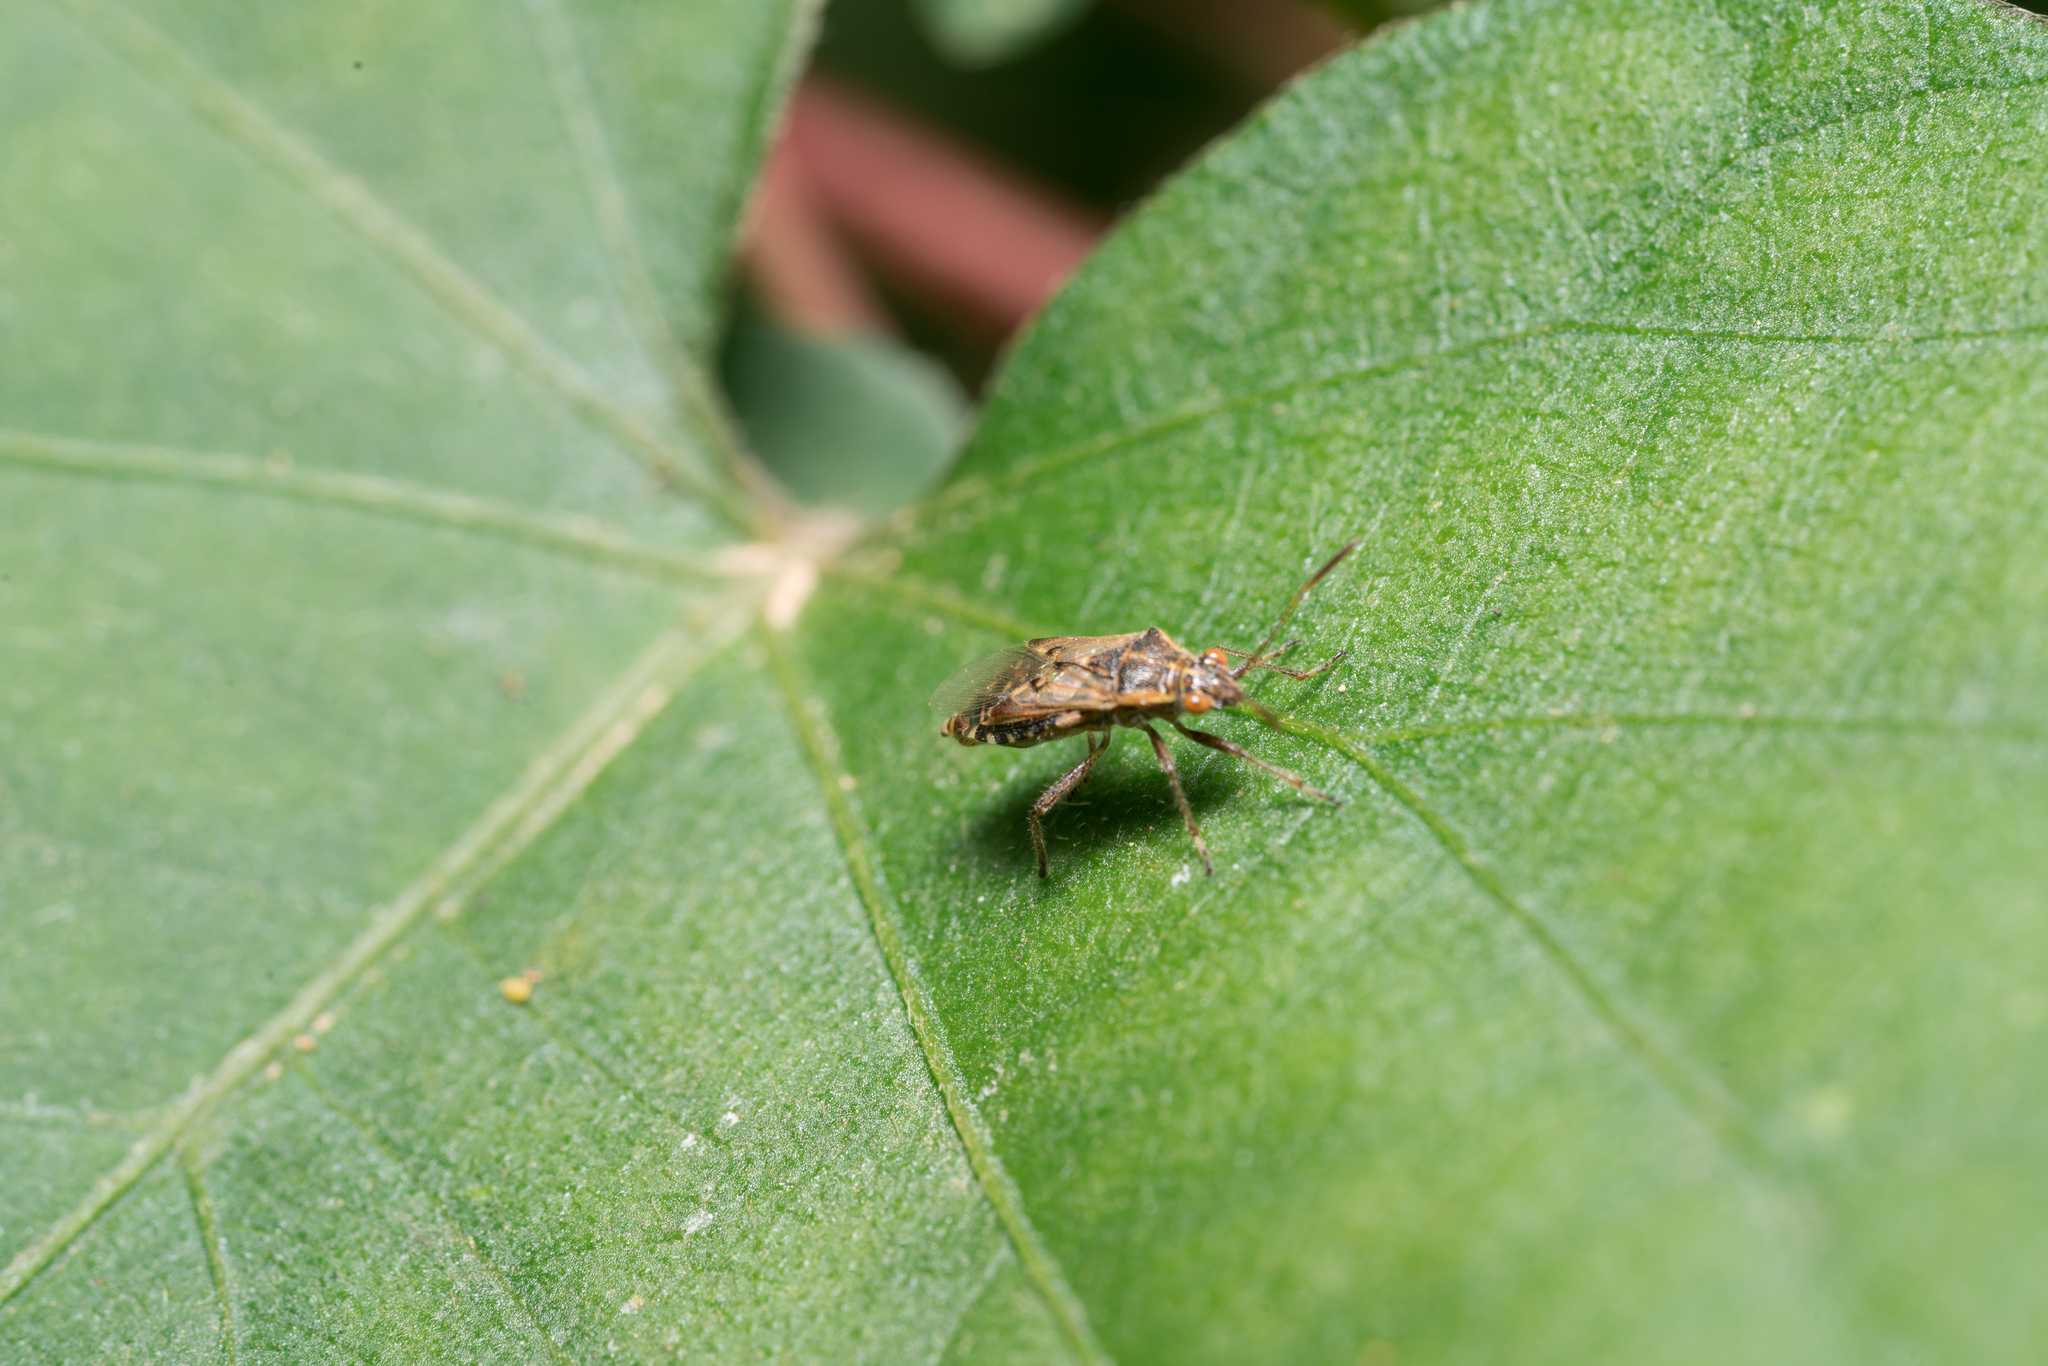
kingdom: Animalia
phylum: Arthropoda
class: Insecta
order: Hemiptera
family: Rhopalidae
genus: Liorhyssus
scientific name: Liorhyssus hyalinus
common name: Scentless plant bug
